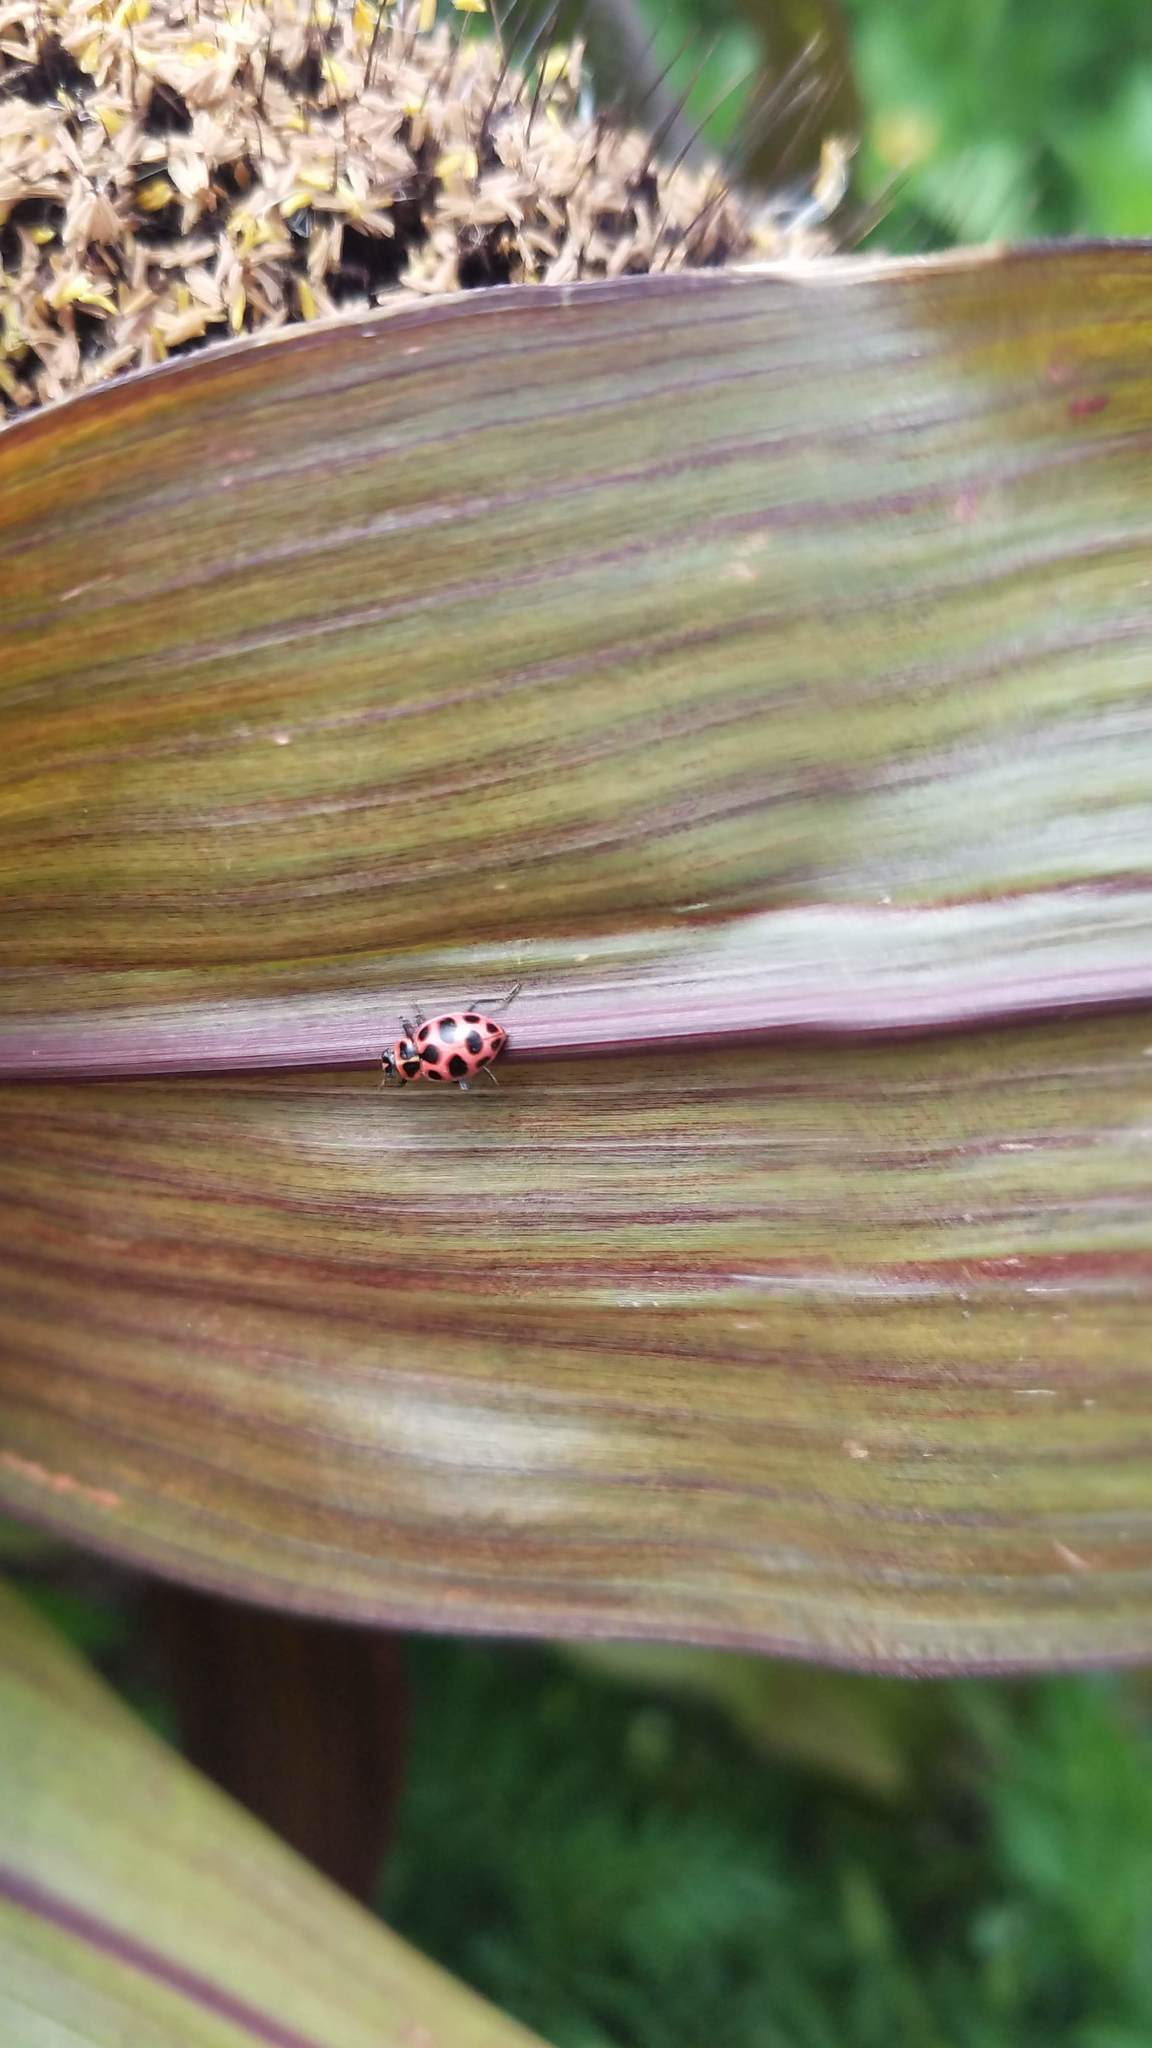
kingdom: Animalia
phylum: Arthropoda
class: Insecta
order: Coleoptera
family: Coccinellidae
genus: Coleomegilla
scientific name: Coleomegilla maculata
